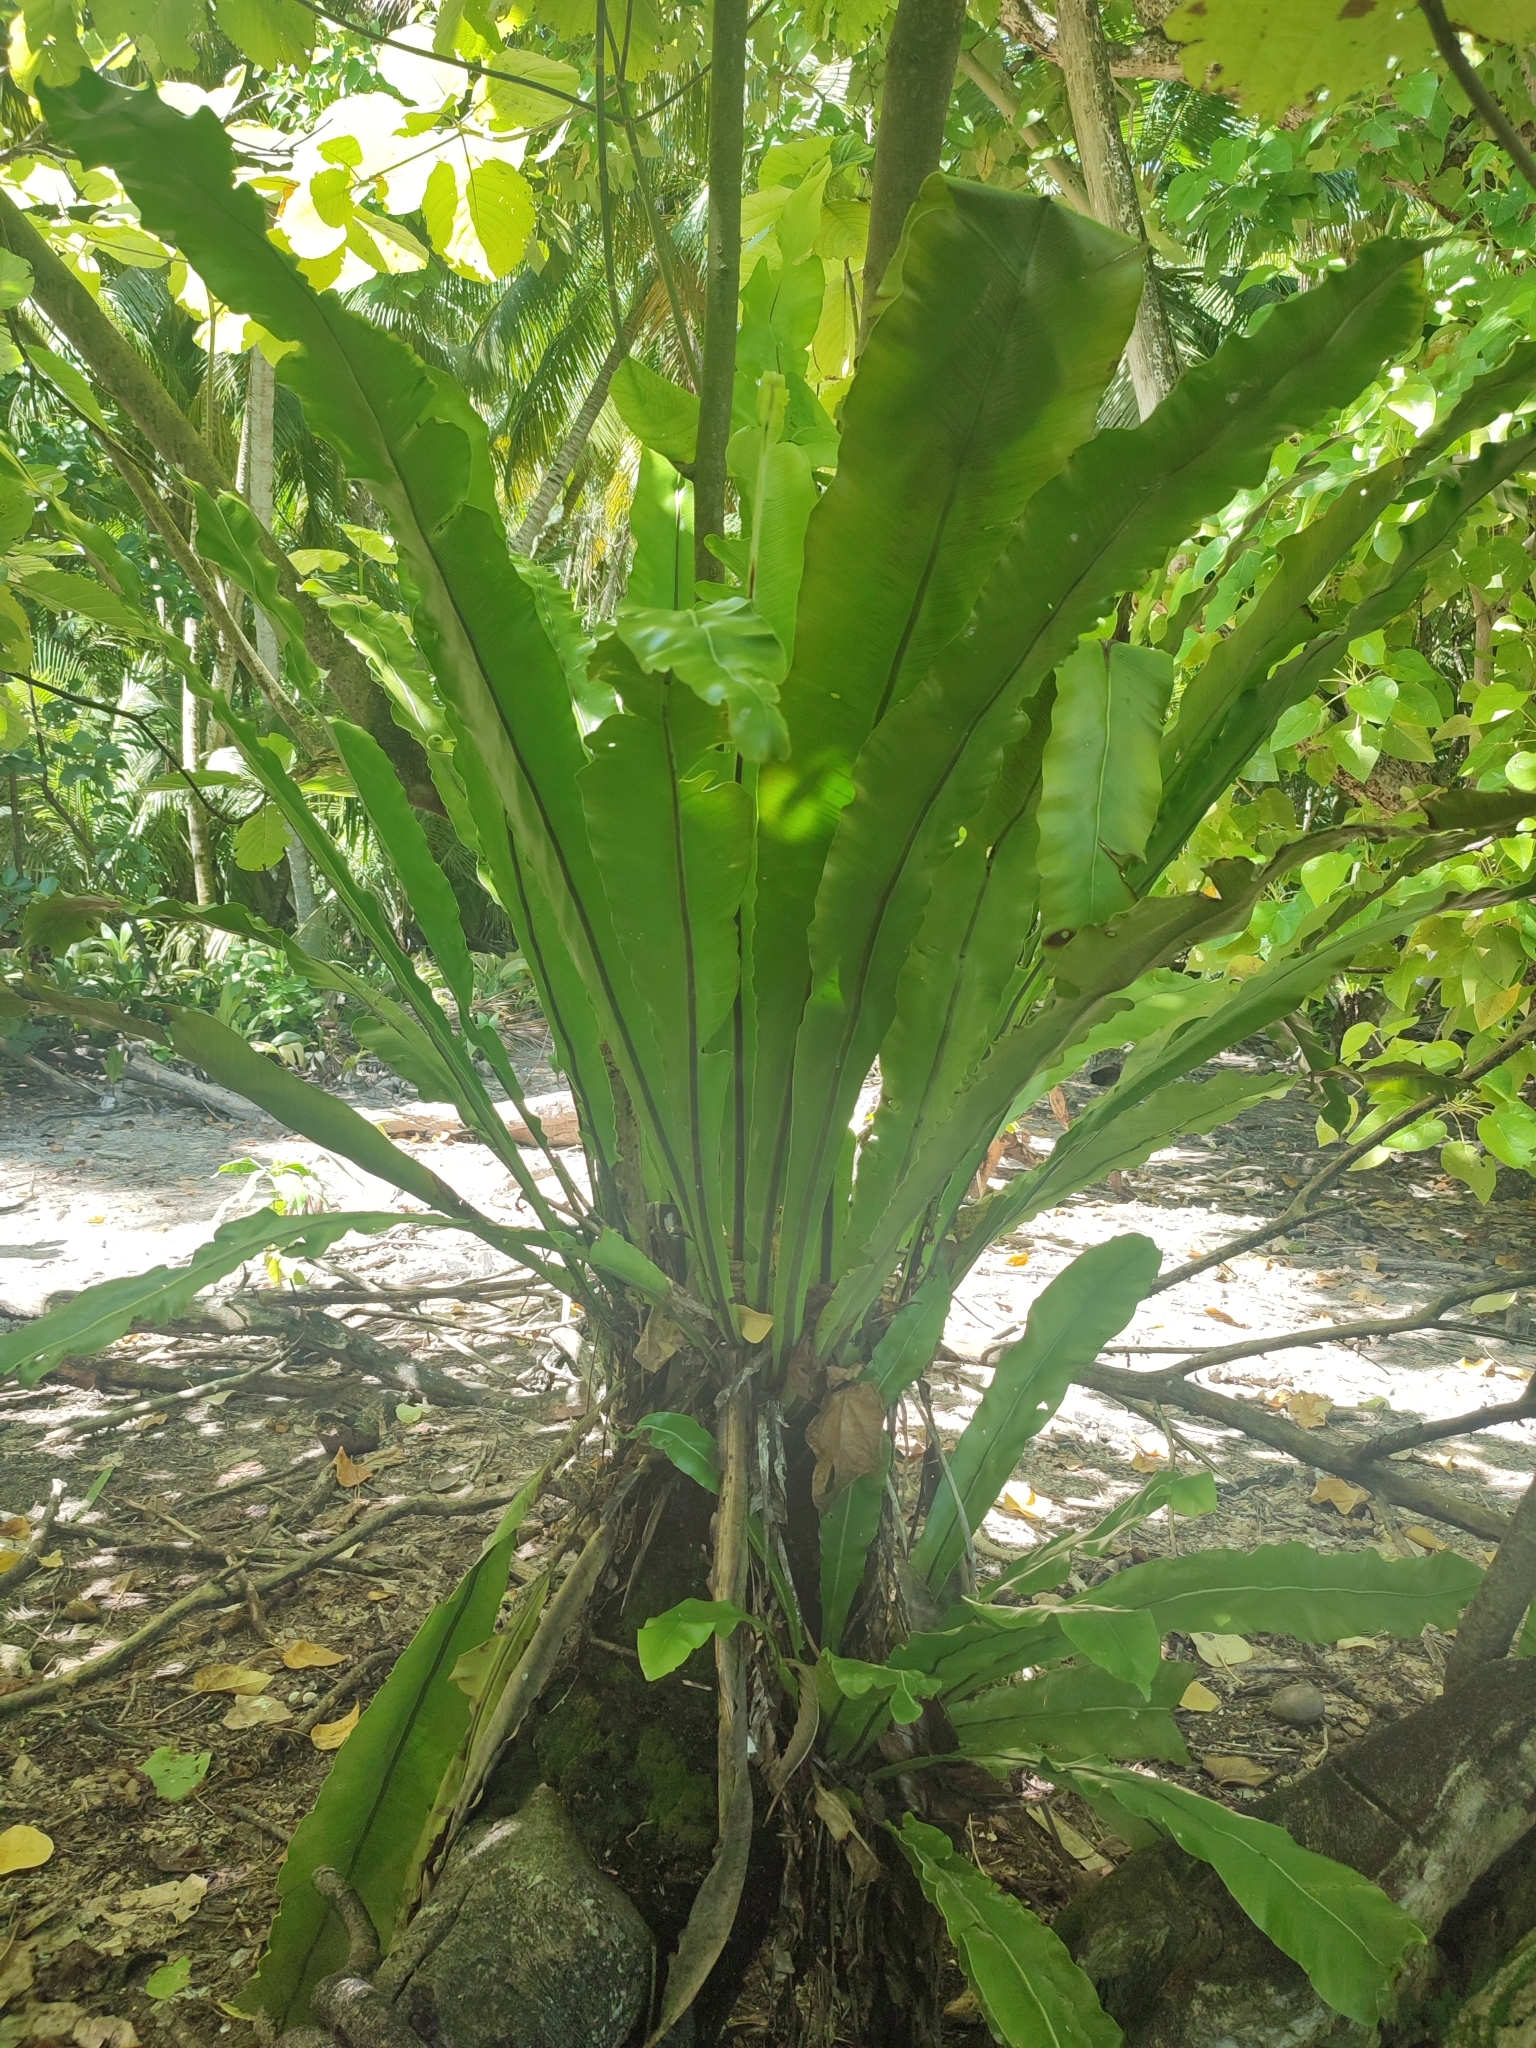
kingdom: Plantae
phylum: Tracheophyta
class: Polypodiopsida
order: Polypodiales
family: Aspleniaceae
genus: Asplenium
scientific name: Asplenium nidus
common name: Bird's-nest fern
